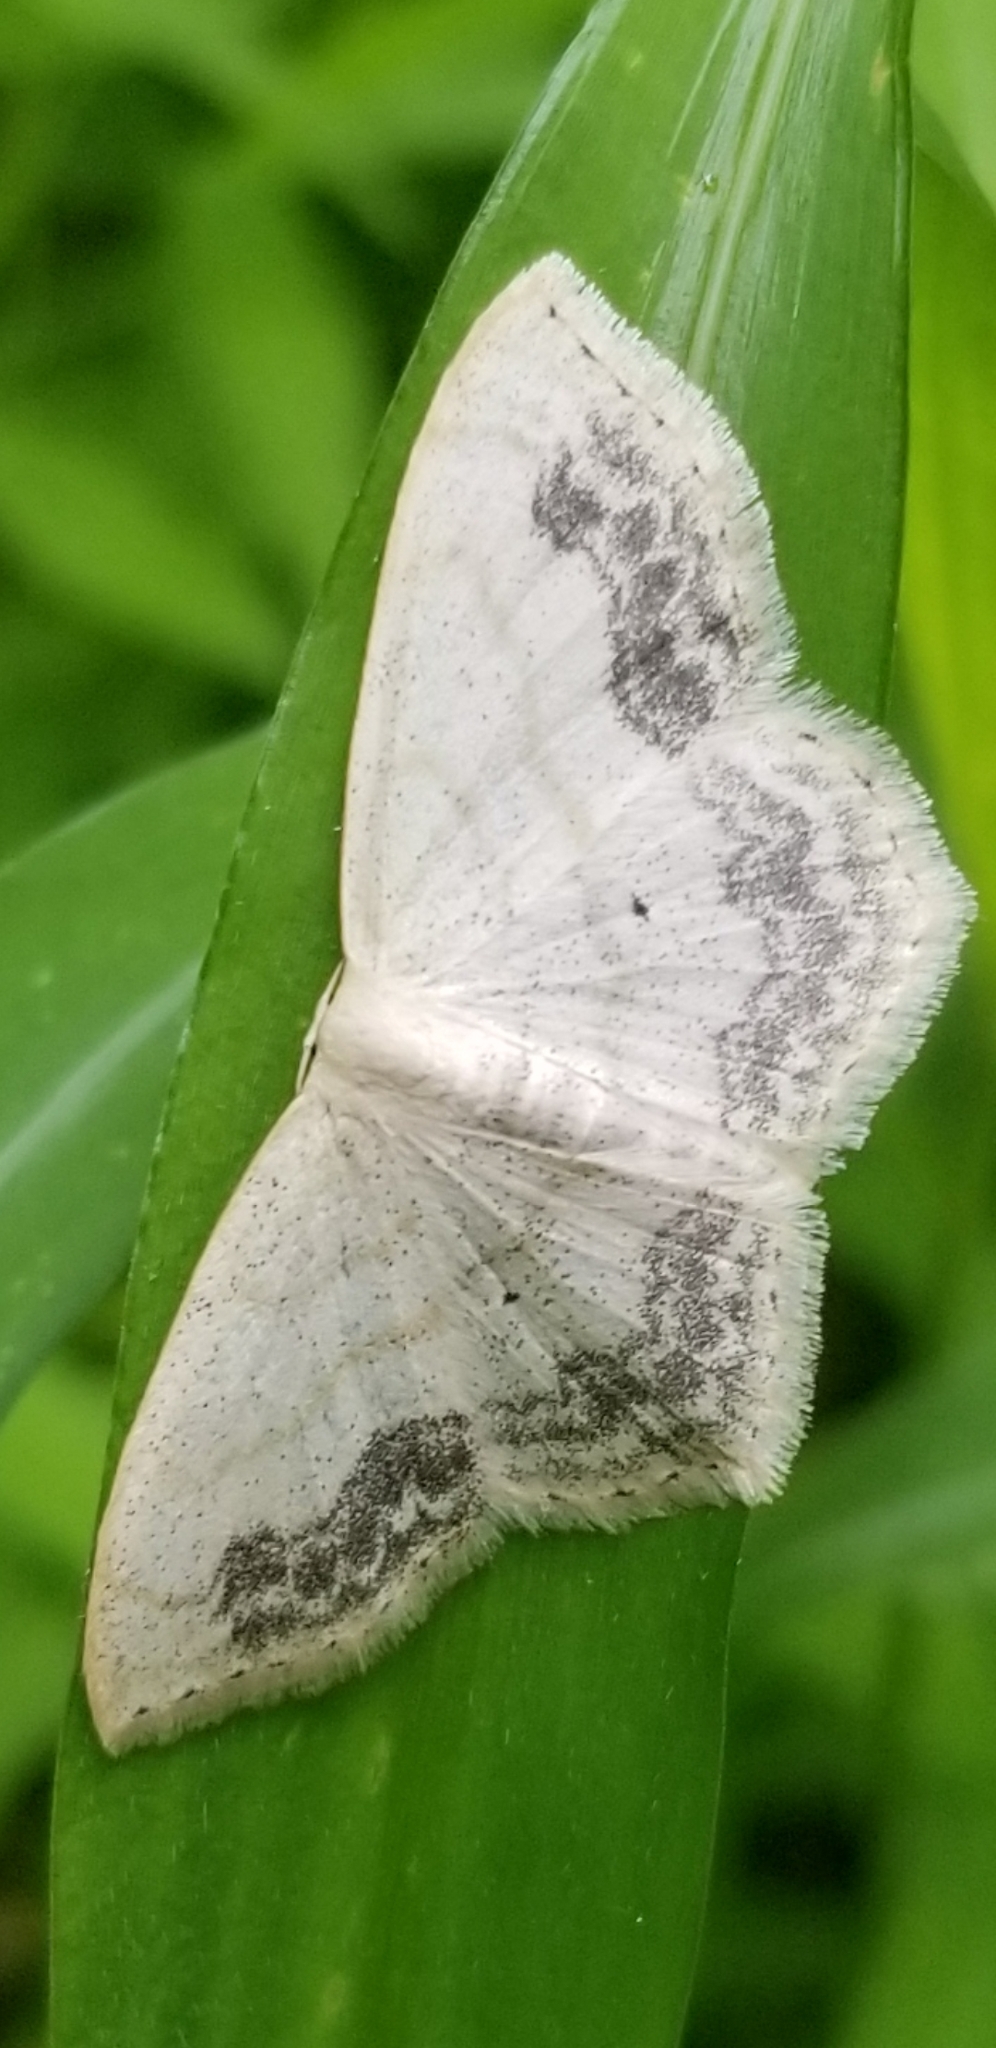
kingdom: Animalia
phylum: Arthropoda
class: Insecta
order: Lepidoptera
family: Geometridae
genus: Scopula
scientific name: Scopula limboundata
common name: Large lace border
